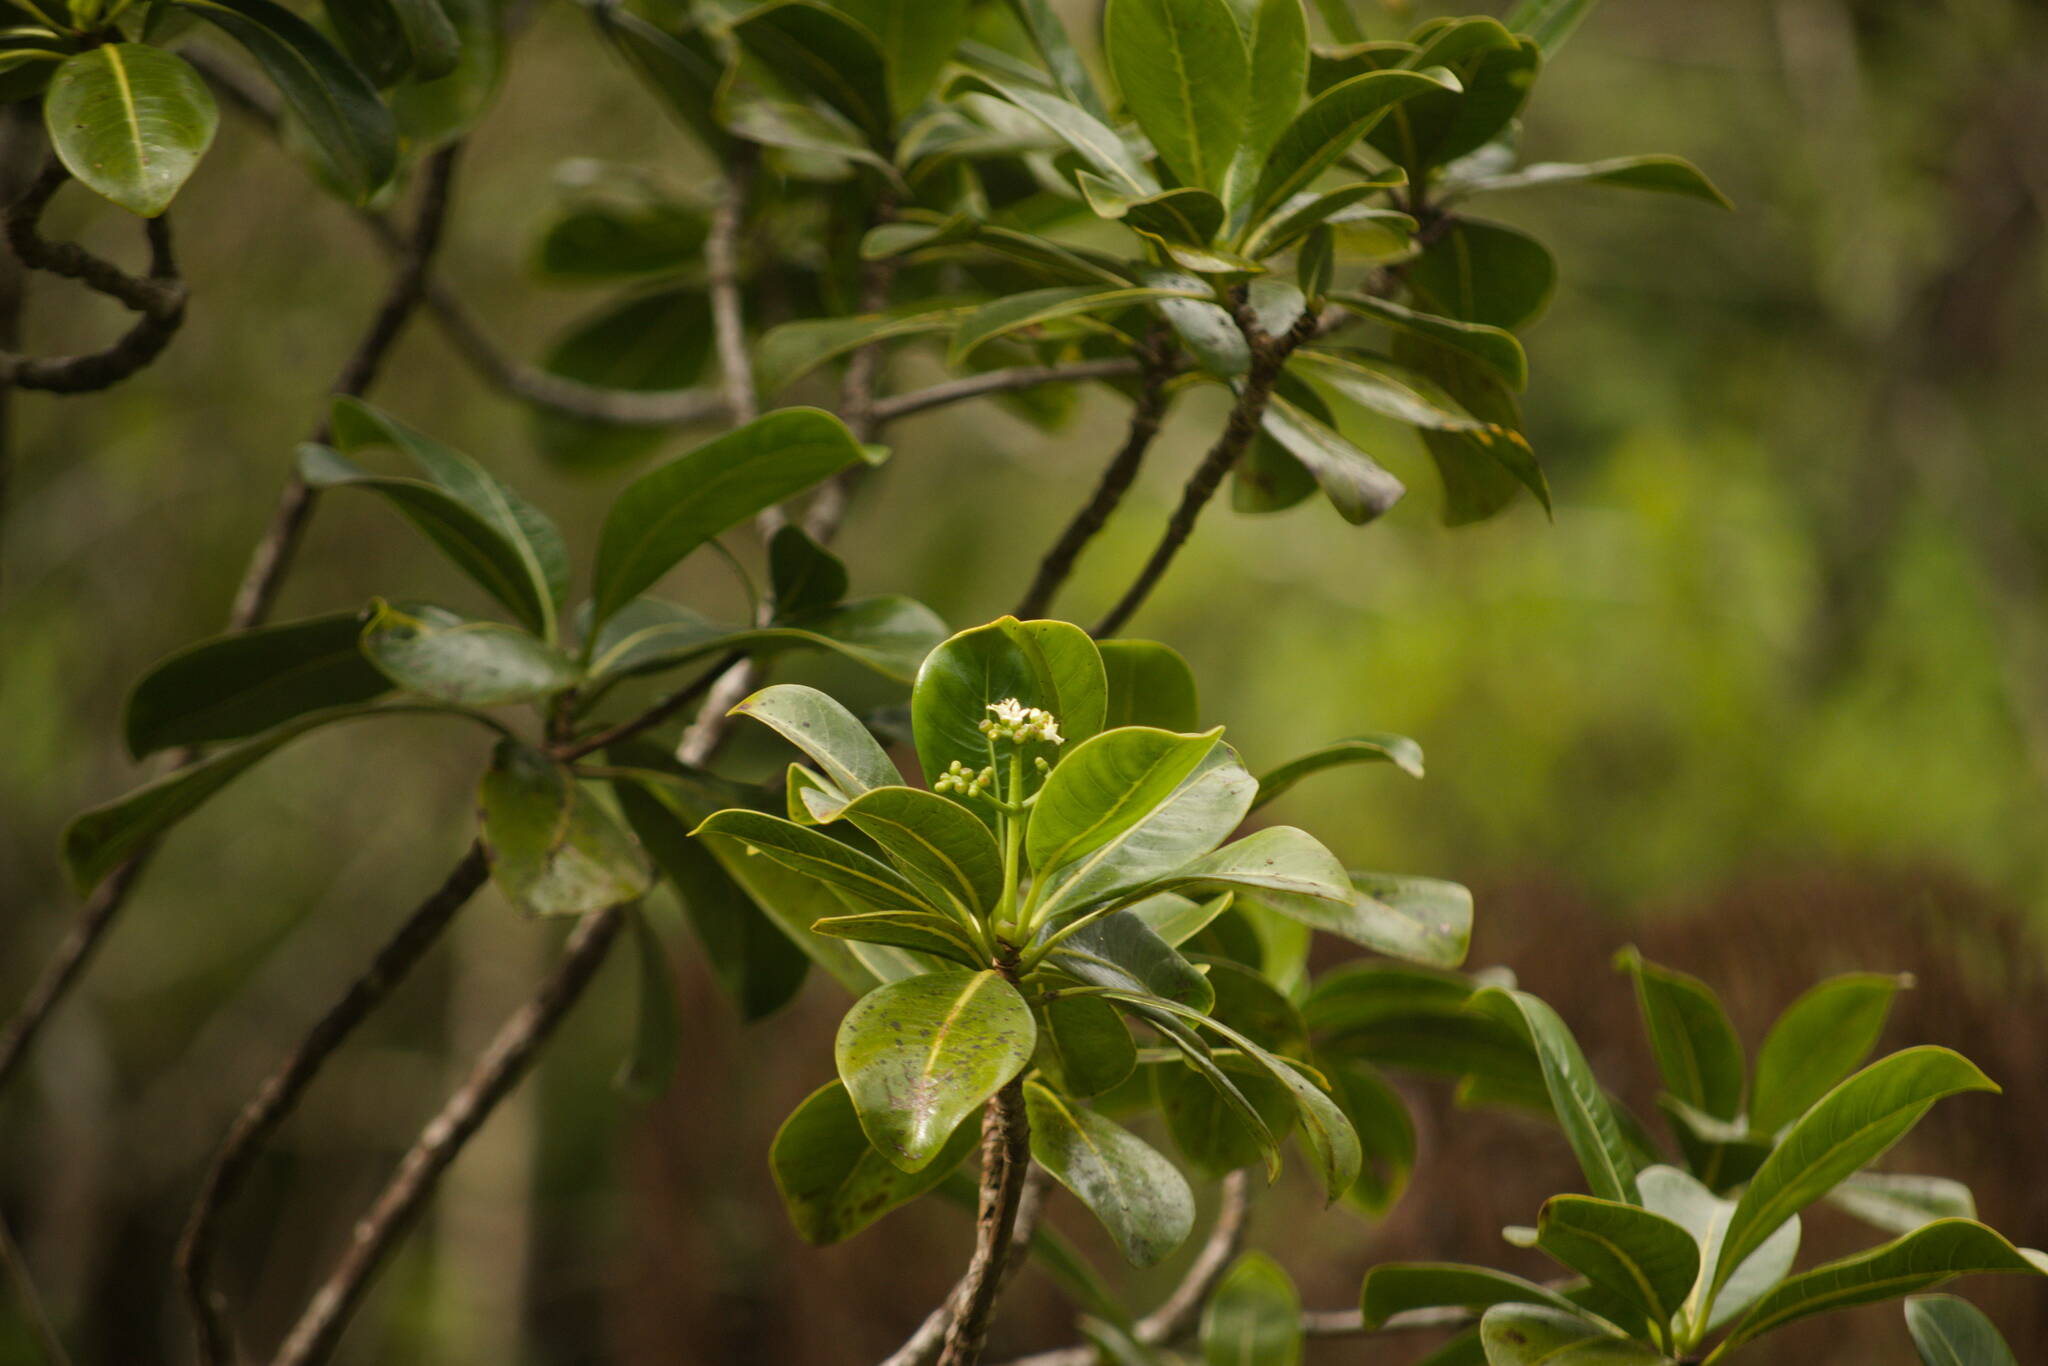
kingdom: Plantae
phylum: Tracheophyta
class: Magnoliopsida
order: Gentianales
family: Rubiaceae
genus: Psychotria
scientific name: Psychotria mariniana
